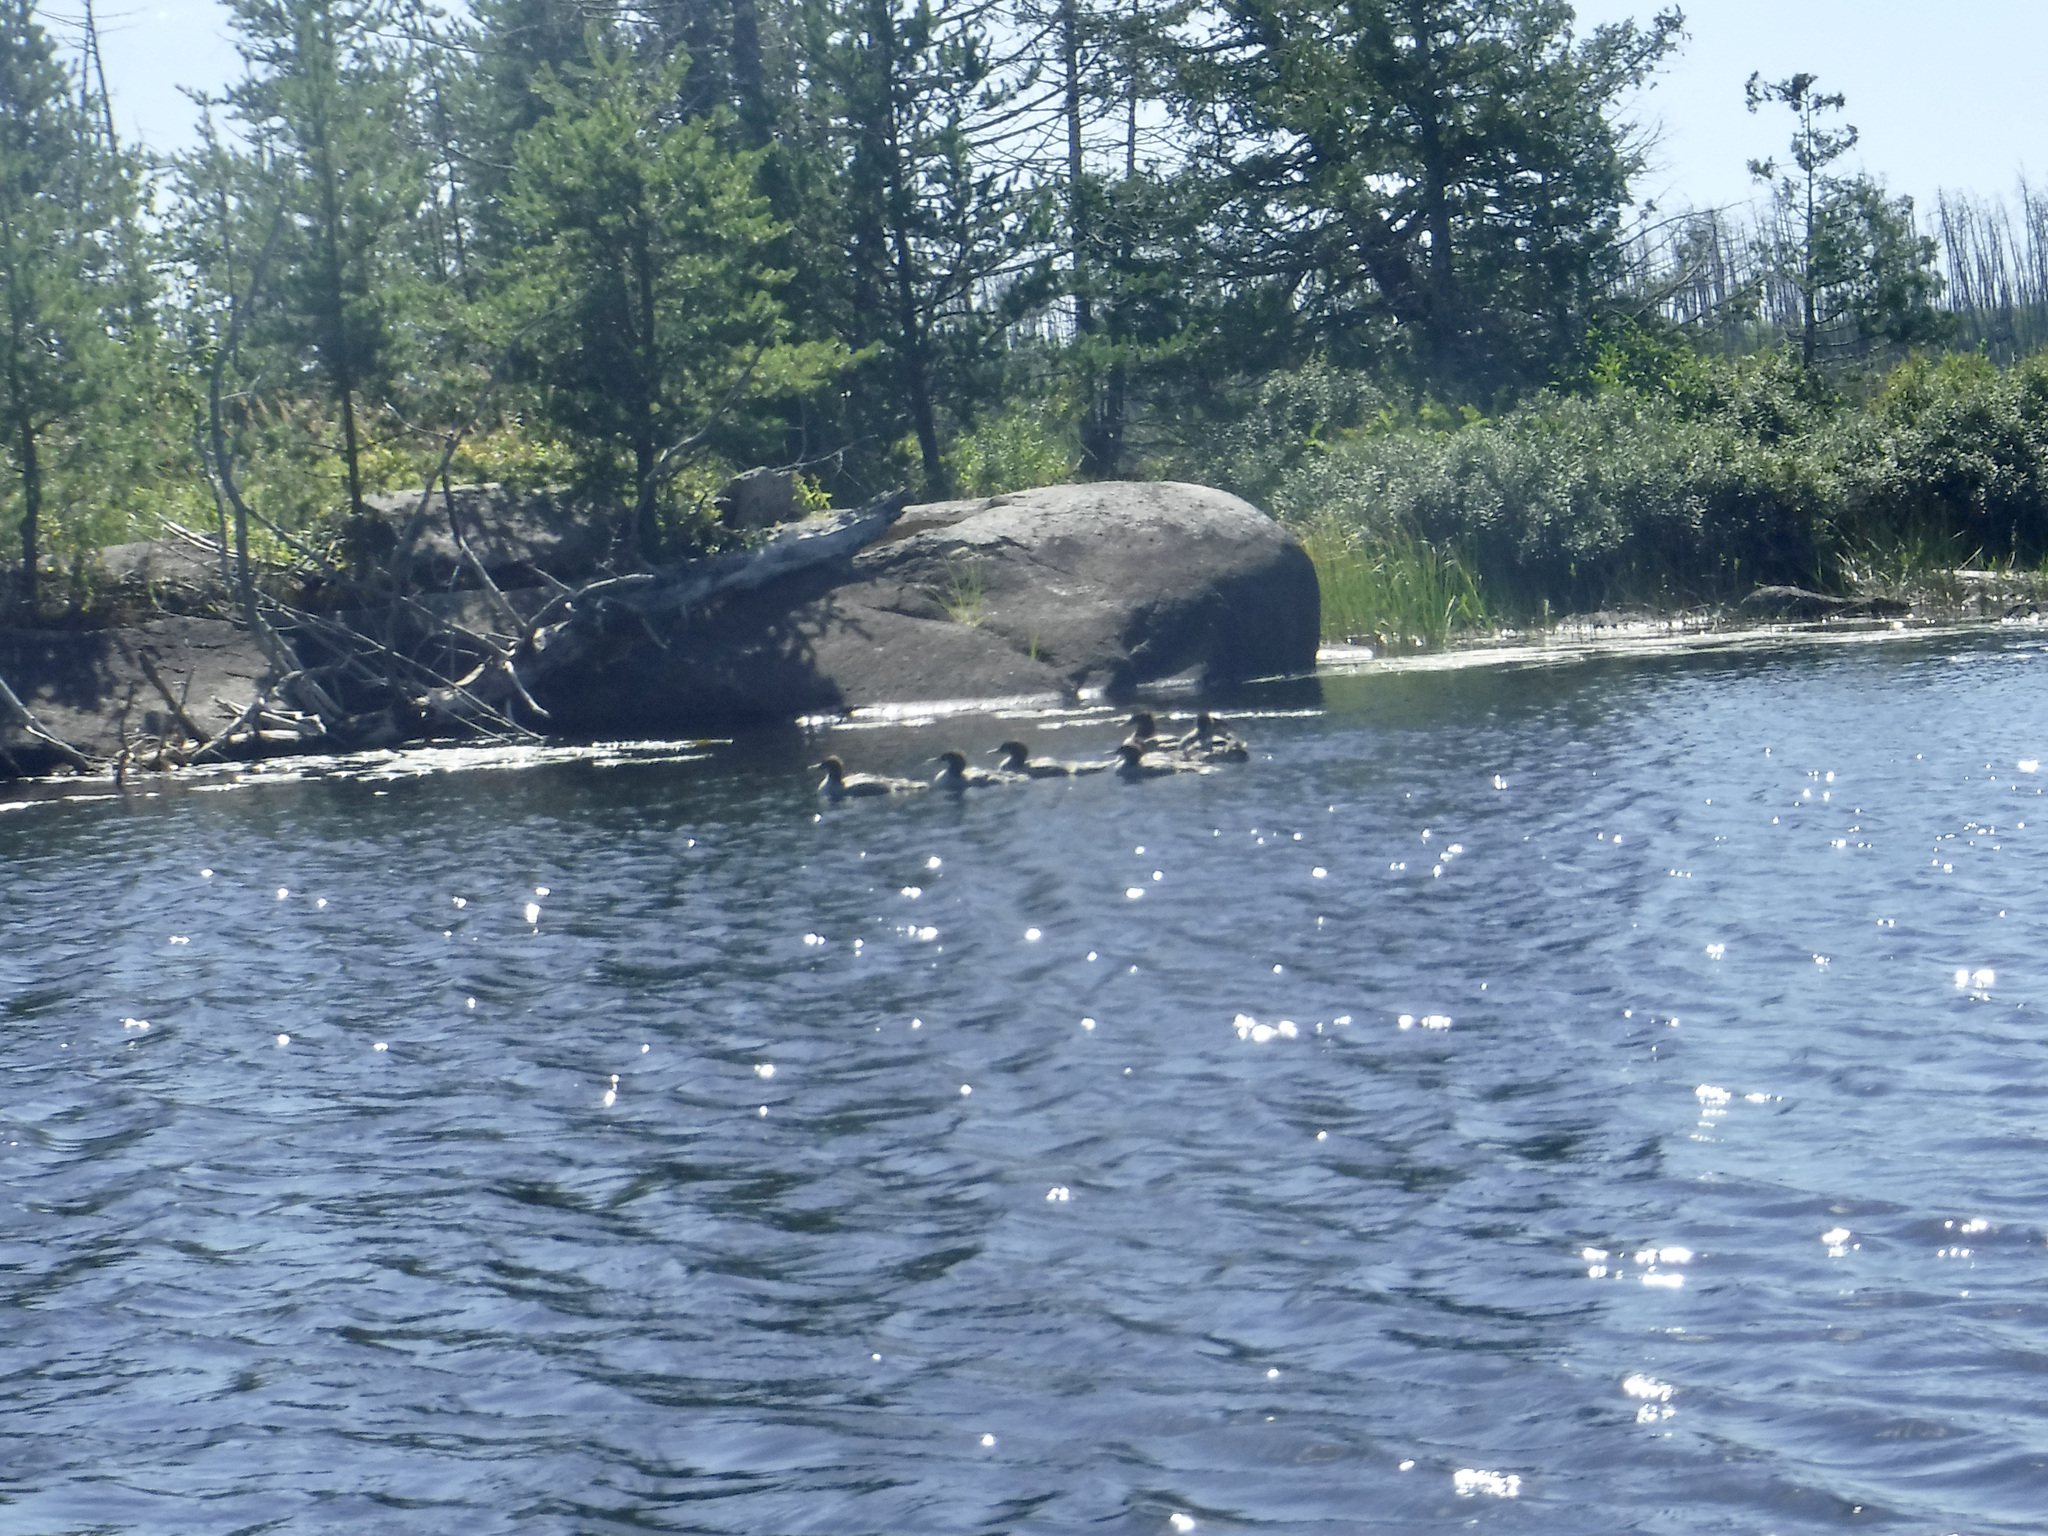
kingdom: Animalia
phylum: Chordata
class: Aves
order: Anseriformes
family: Anatidae
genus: Mergus
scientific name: Mergus merganser
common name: Common merganser
